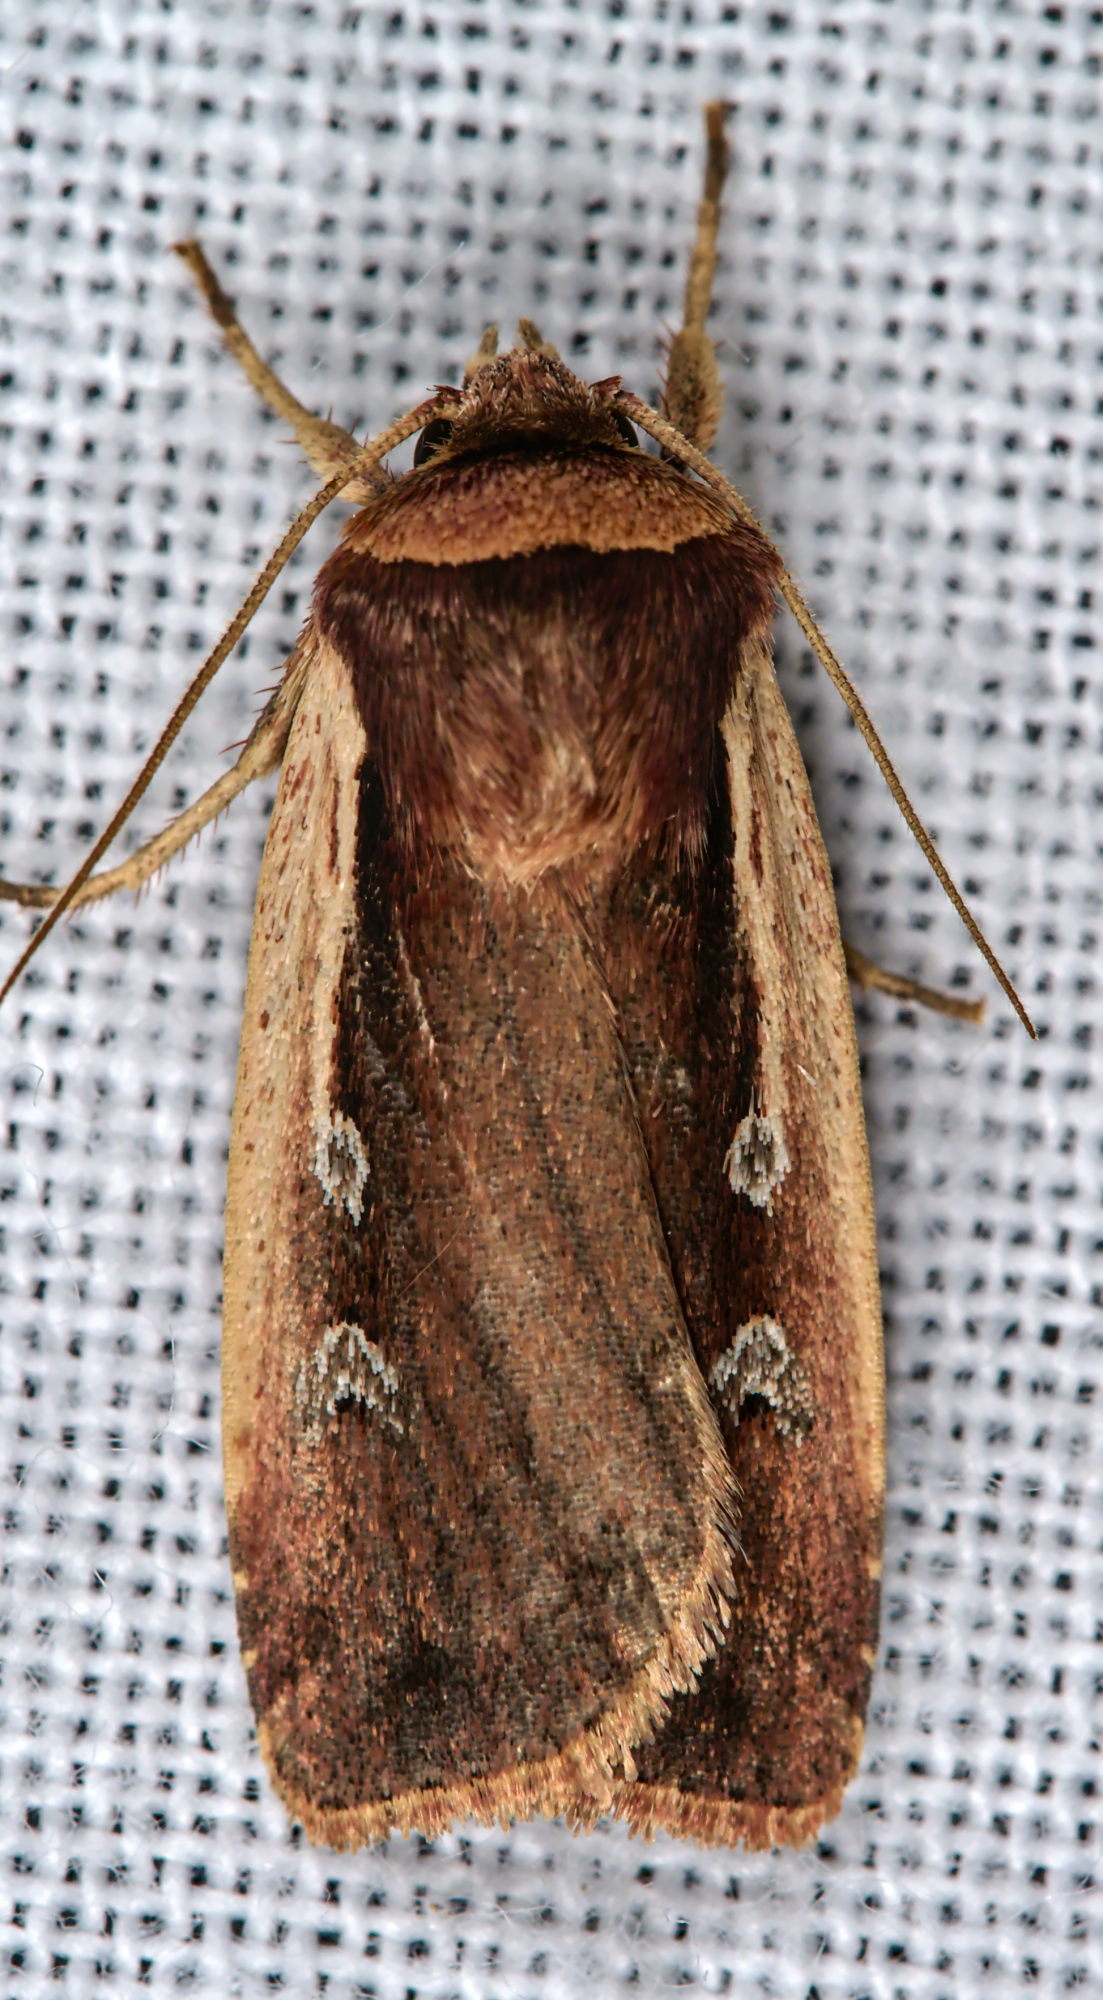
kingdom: Animalia
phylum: Arthropoda
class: Insecta
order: Lepidoptera
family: Noctuidae
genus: Ochropleura
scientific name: Ochropleura plecta
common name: Flame shoulder
